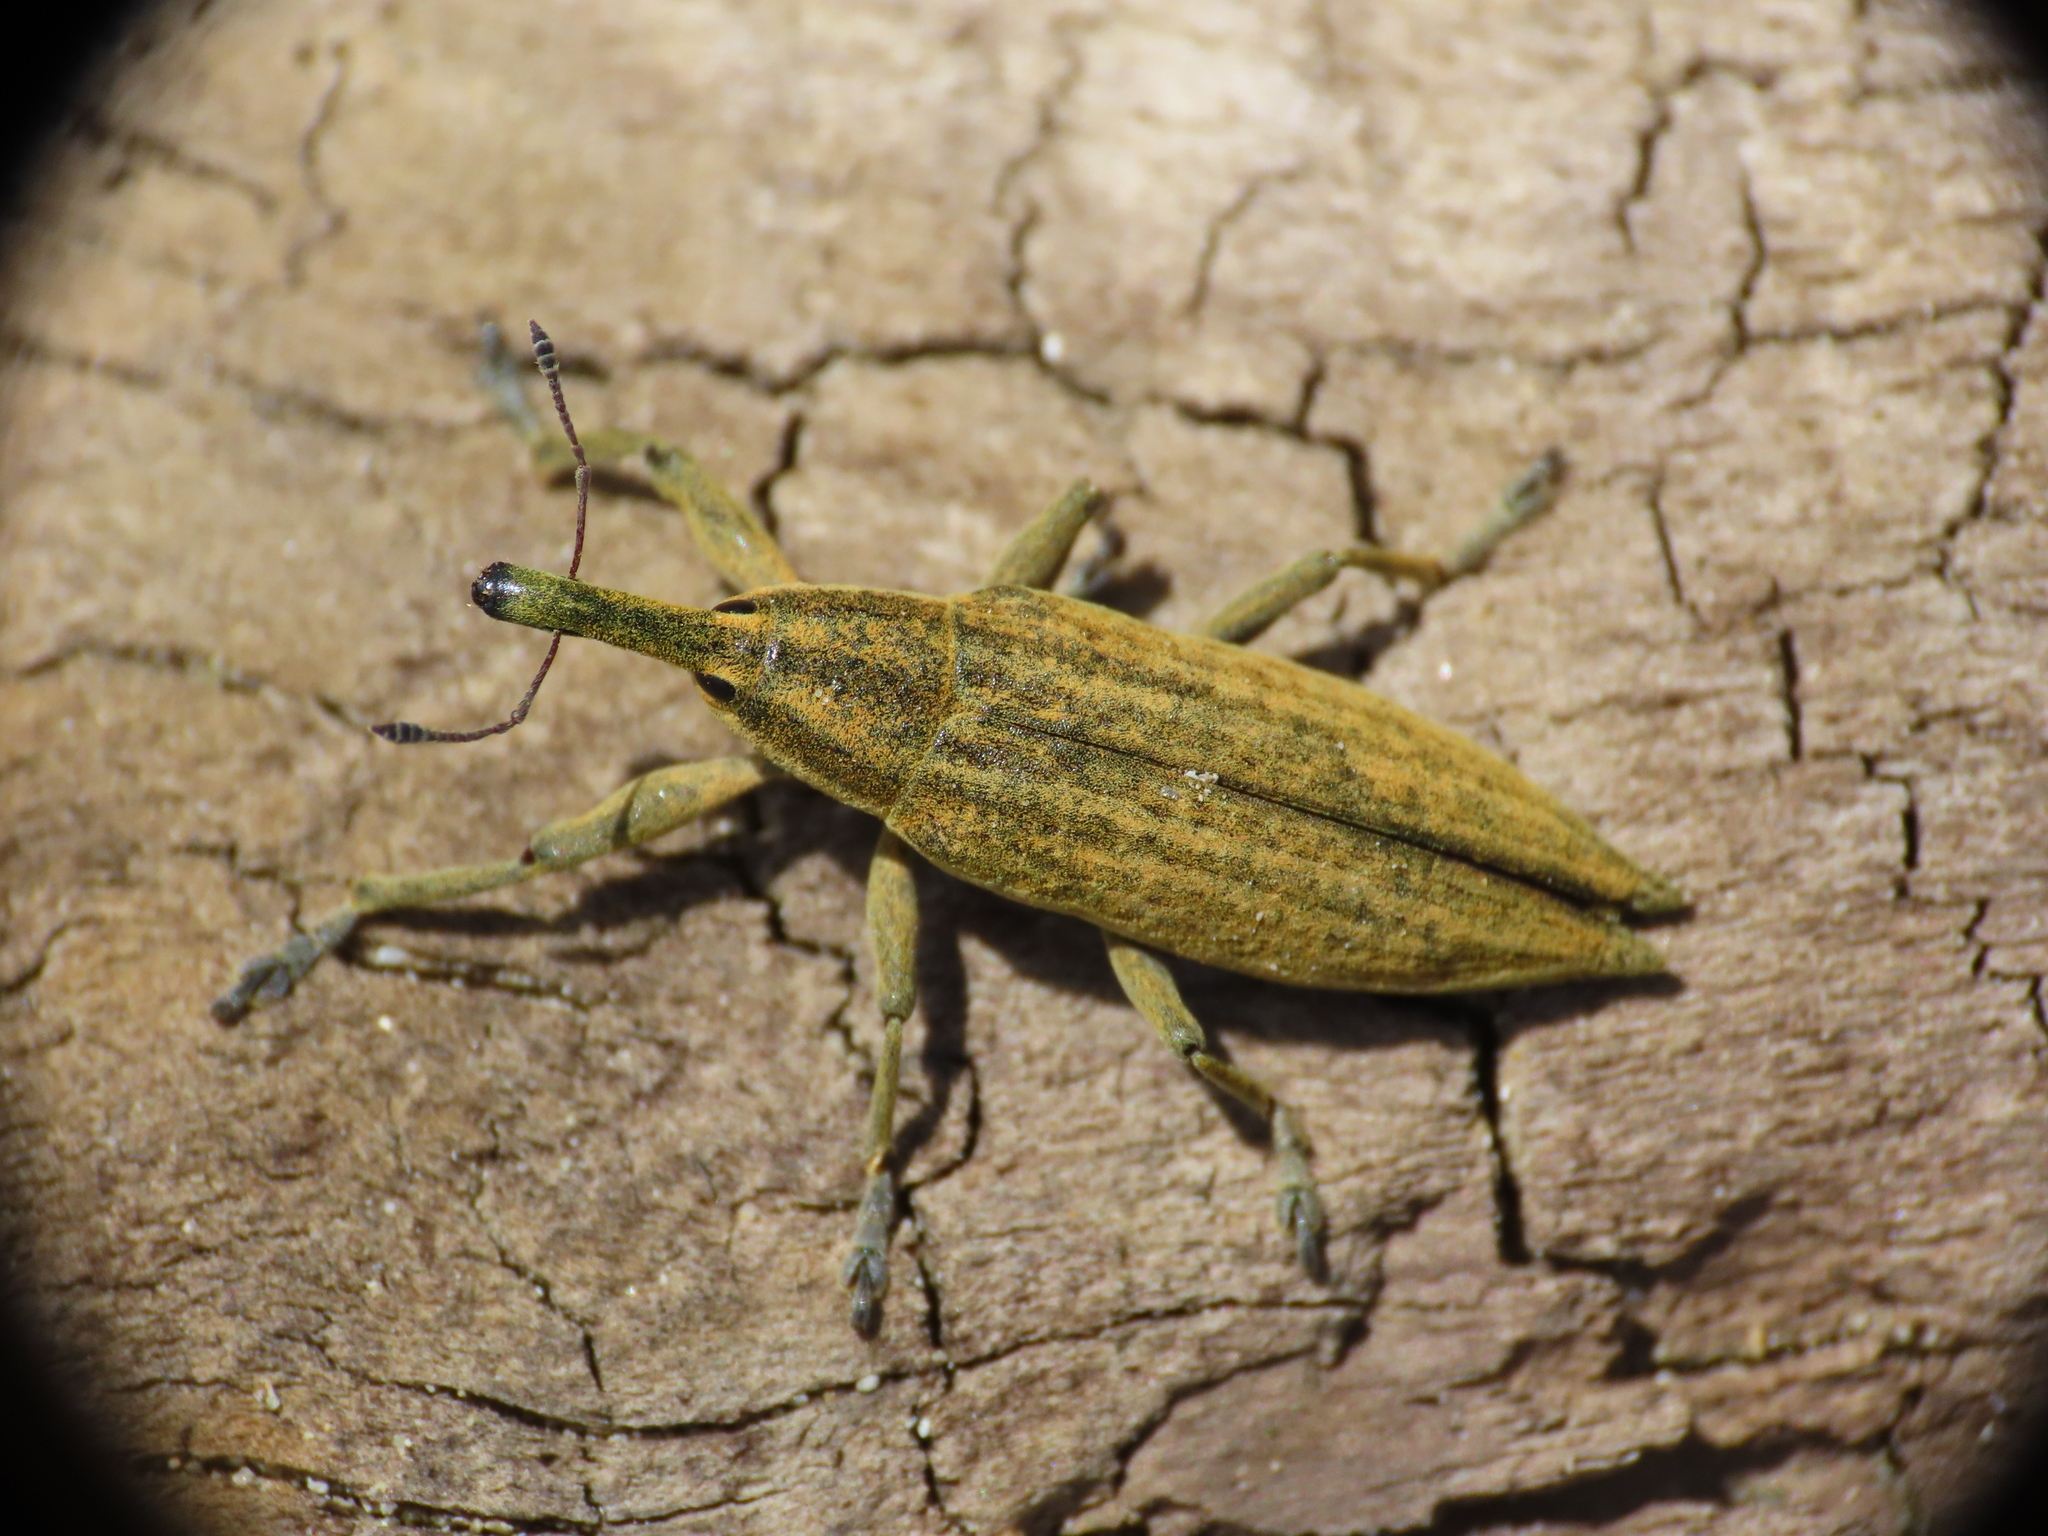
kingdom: Animalia
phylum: Arthropoda
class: Insecta
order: Coleoptera
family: Curculionidae
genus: Lixus
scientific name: Lixus iridis
